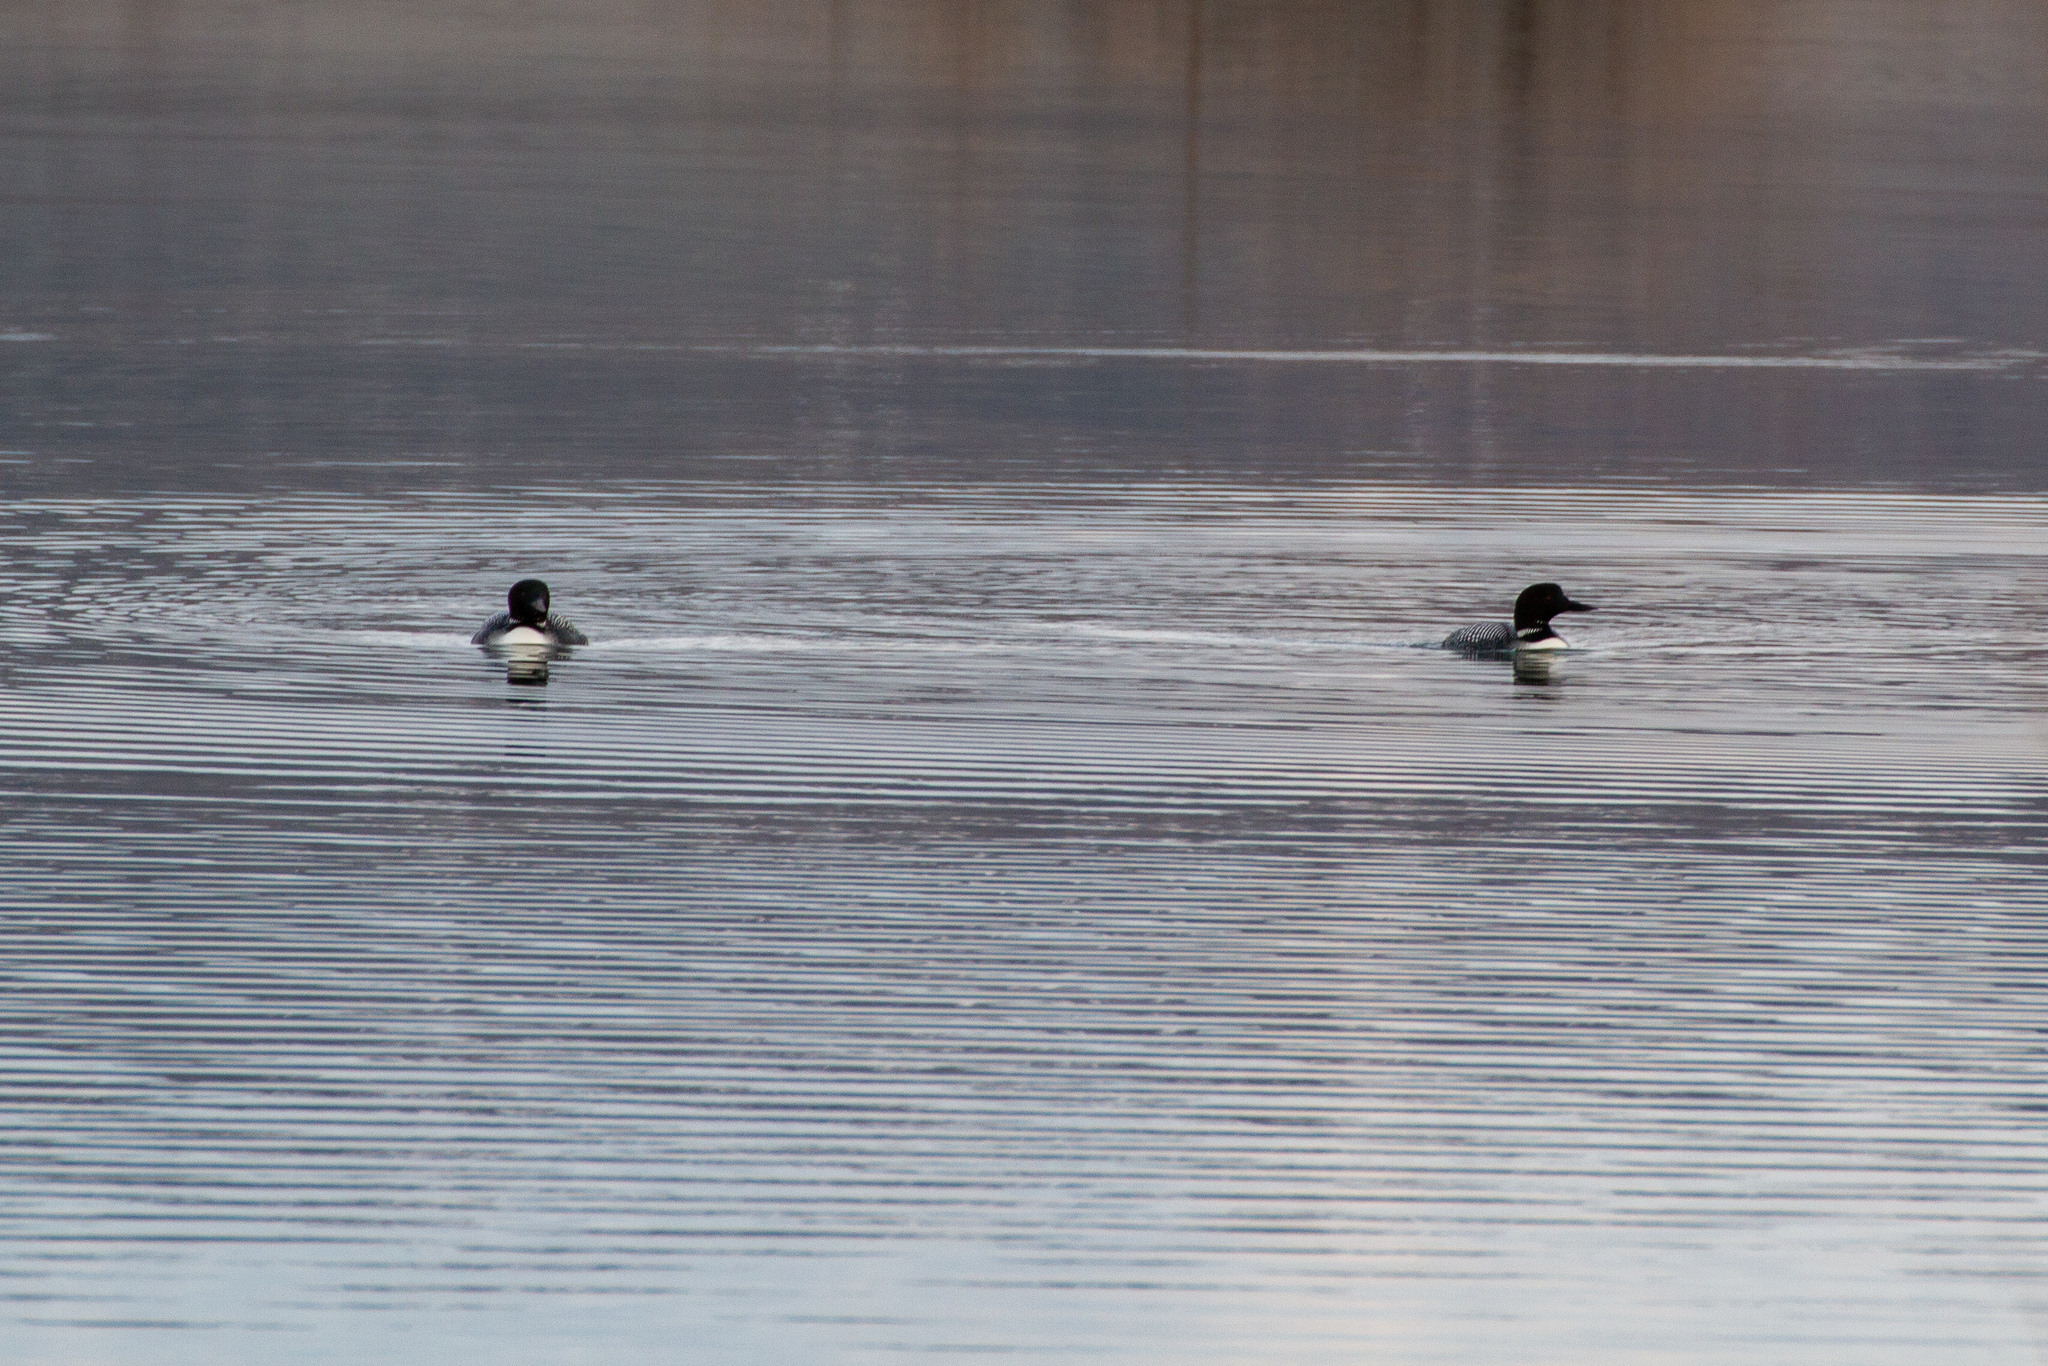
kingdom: Animalia
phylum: Chordata
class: Aves
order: Gaviiformes
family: Gaviidae
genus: Gavia
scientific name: Gavia immer
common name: Common loon
